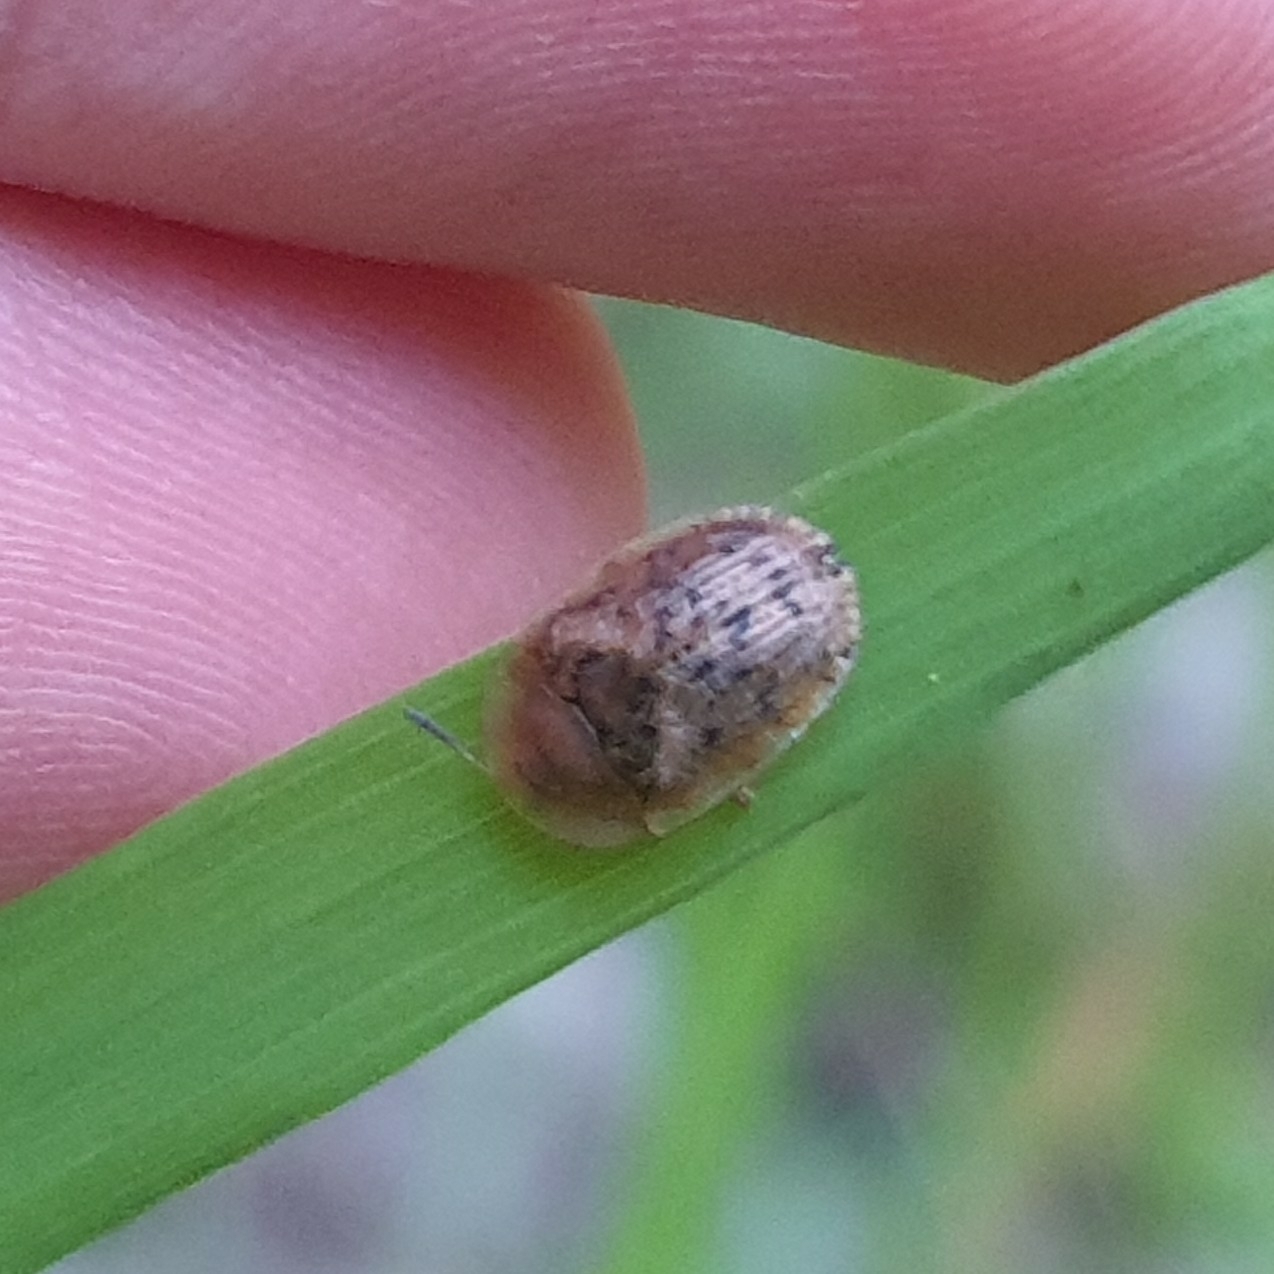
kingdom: Animalia
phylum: Arthropoda
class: Insecta
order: Coleoptera
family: Chrysomelidae
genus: Cassida
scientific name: Cassida nebulosa
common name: Beet tortoise beetle
